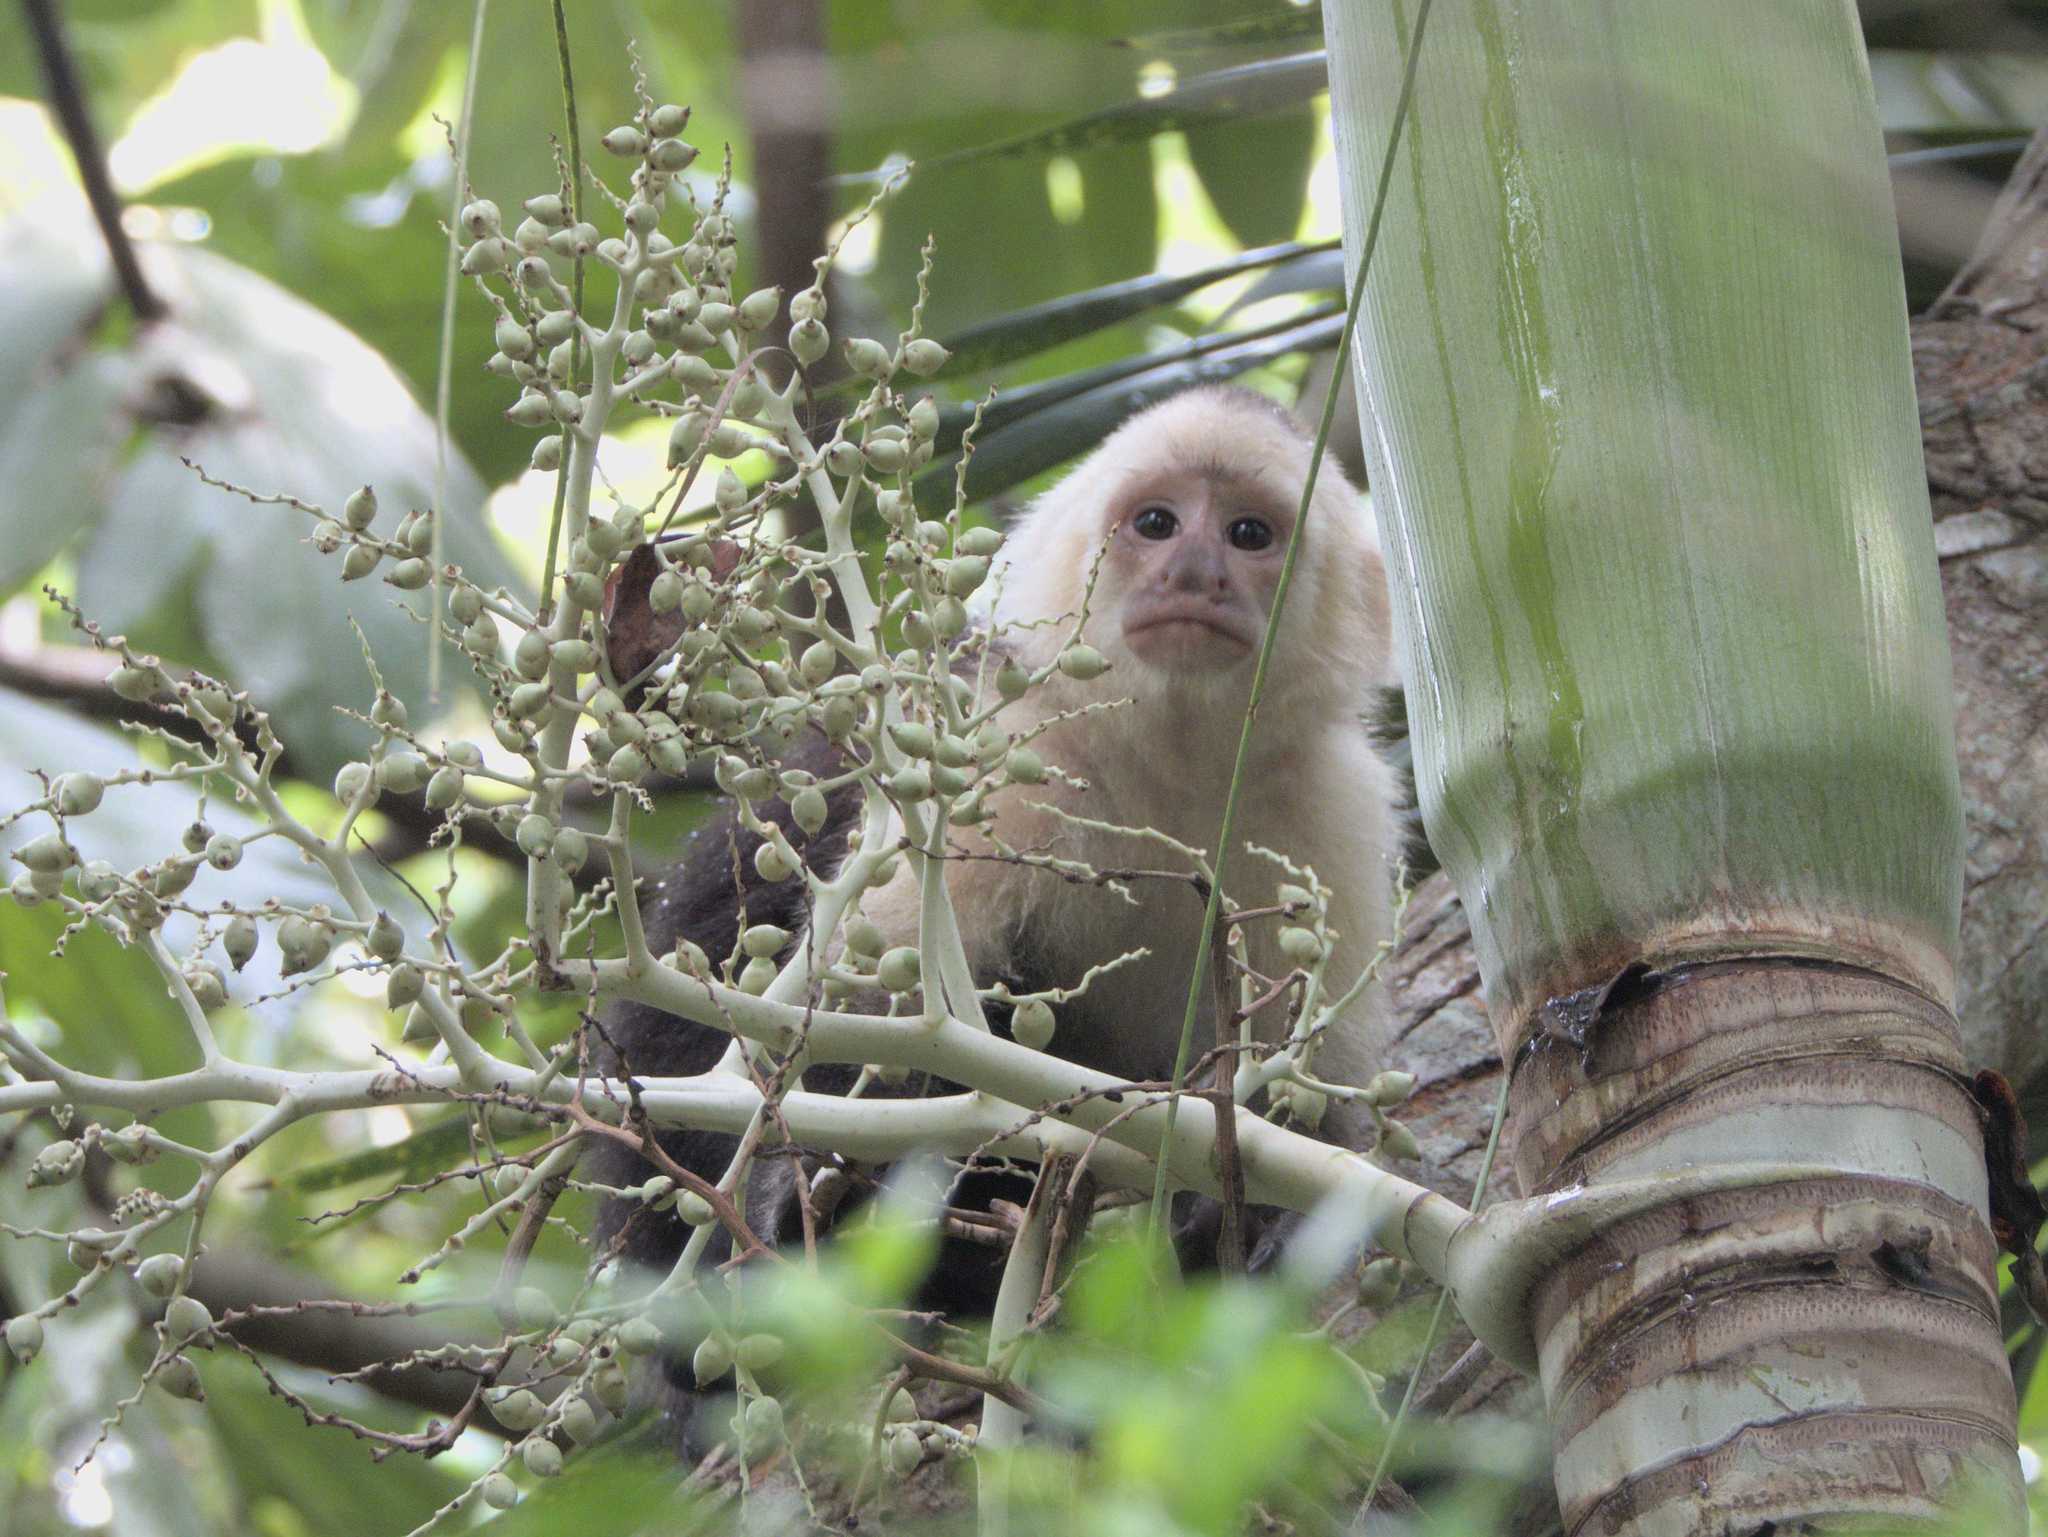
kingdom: Animalia
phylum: Chordata
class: Mammalia
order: Primates
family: Cebidae
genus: Cebus
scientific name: Cebus imitator
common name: Panamanian white-faced capuchin
